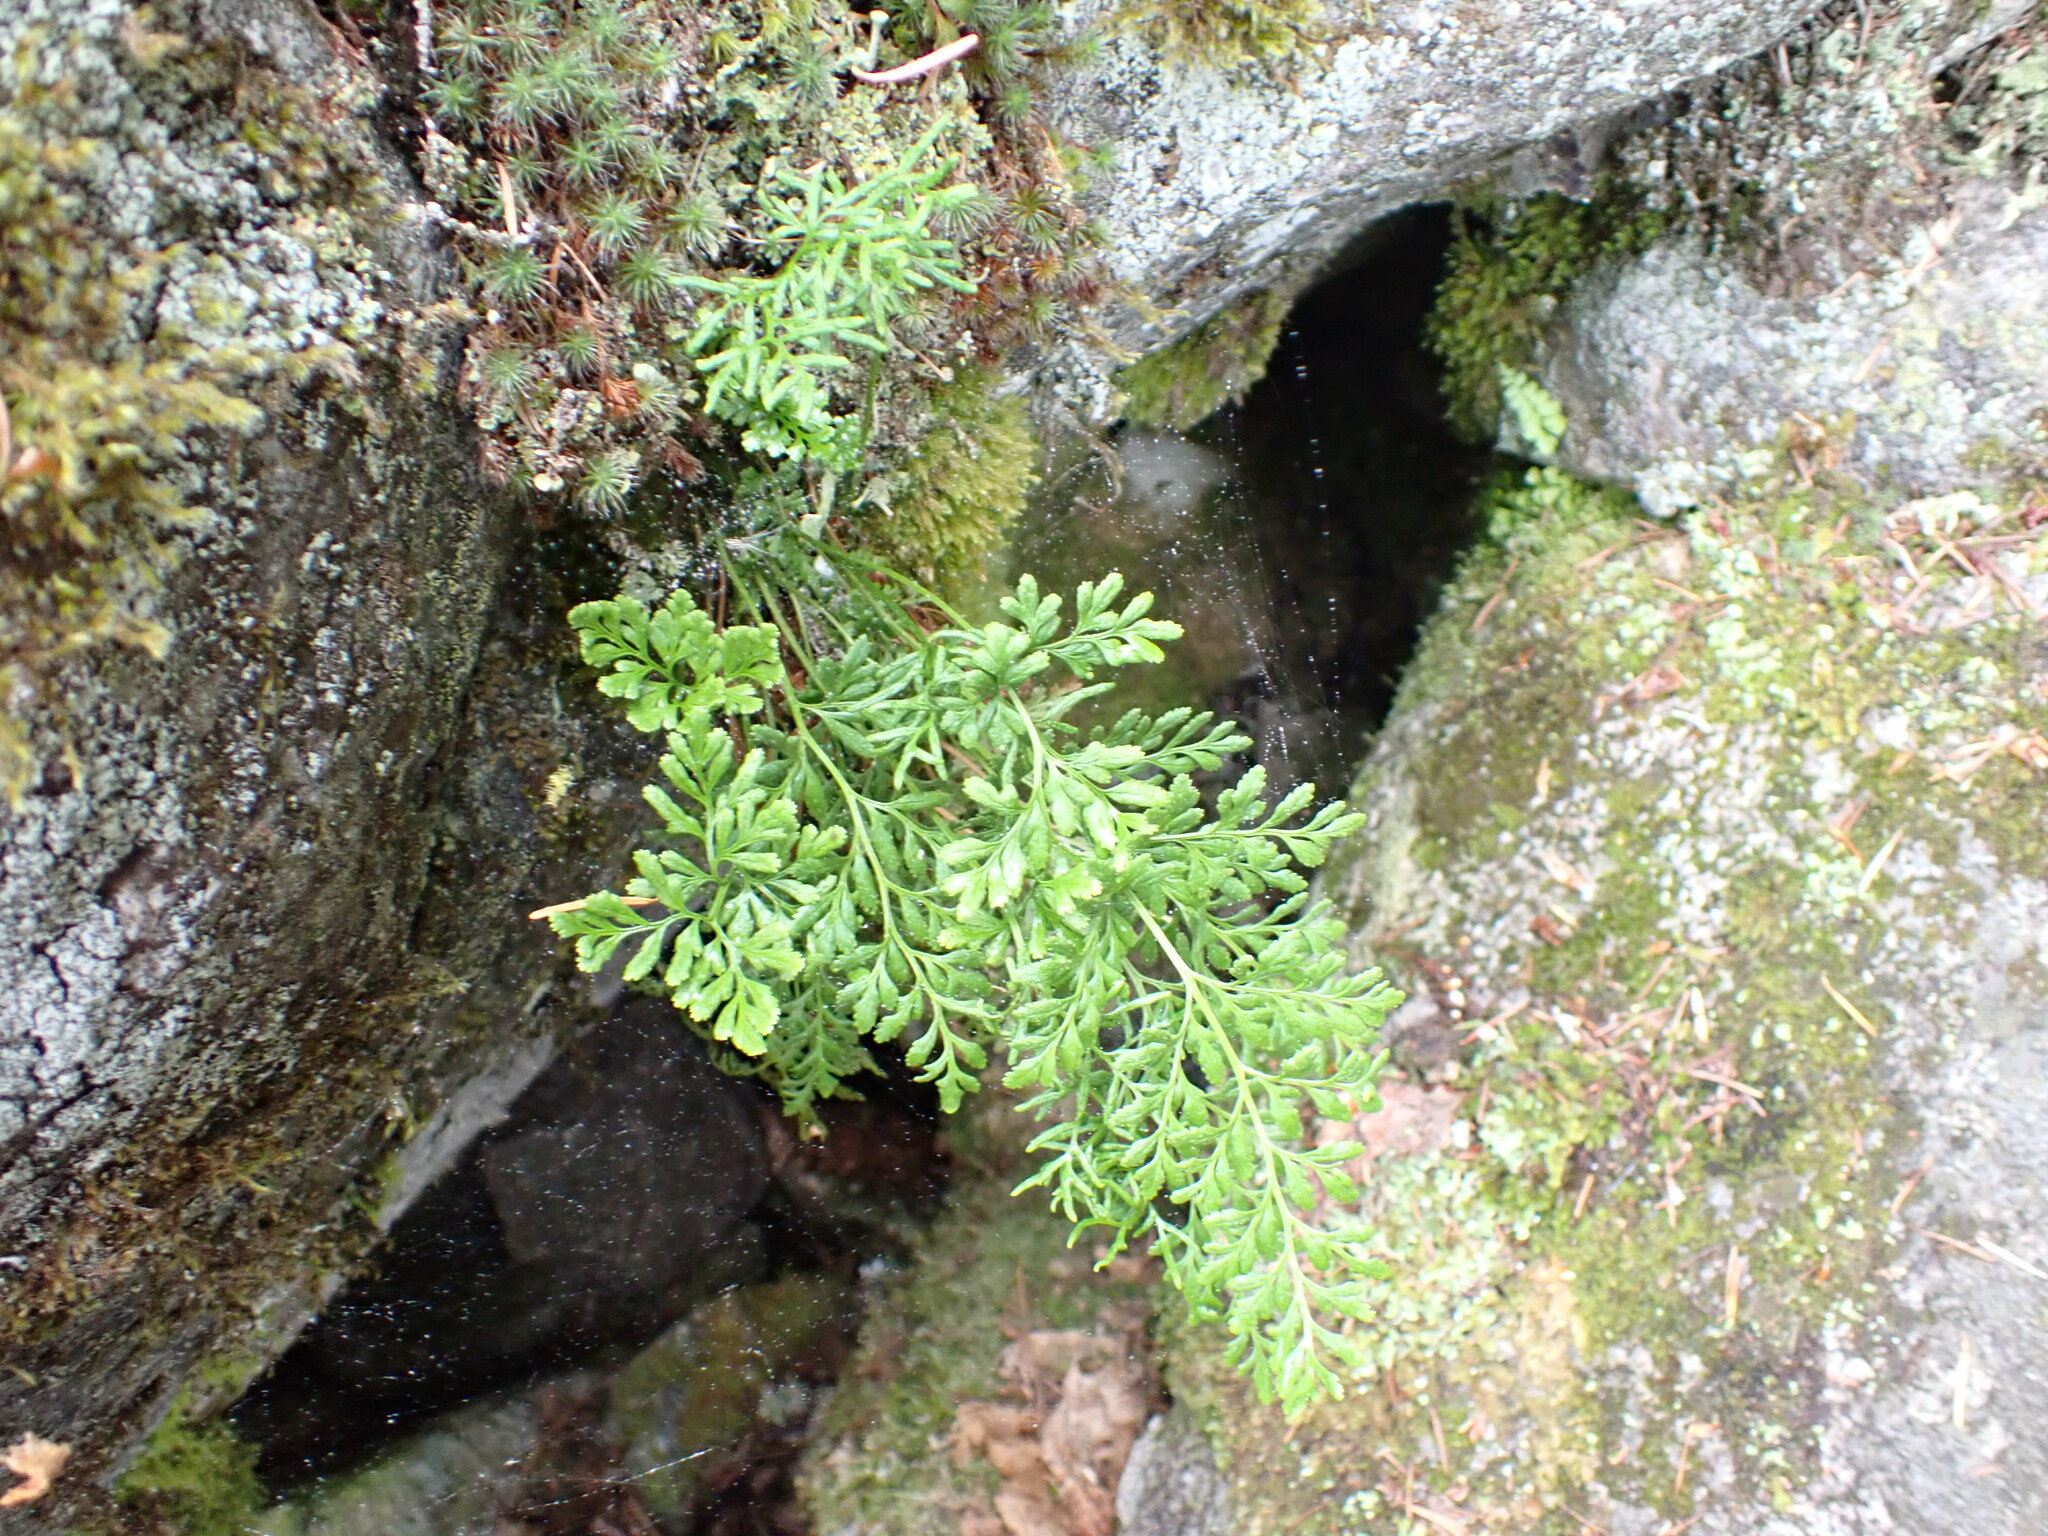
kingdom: Plantae
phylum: Tracheophyta
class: Polypodiopsida
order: Polypodiales
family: Pteridaceae
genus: Cryptogramma
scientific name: Cryptogramma acrostichoides
